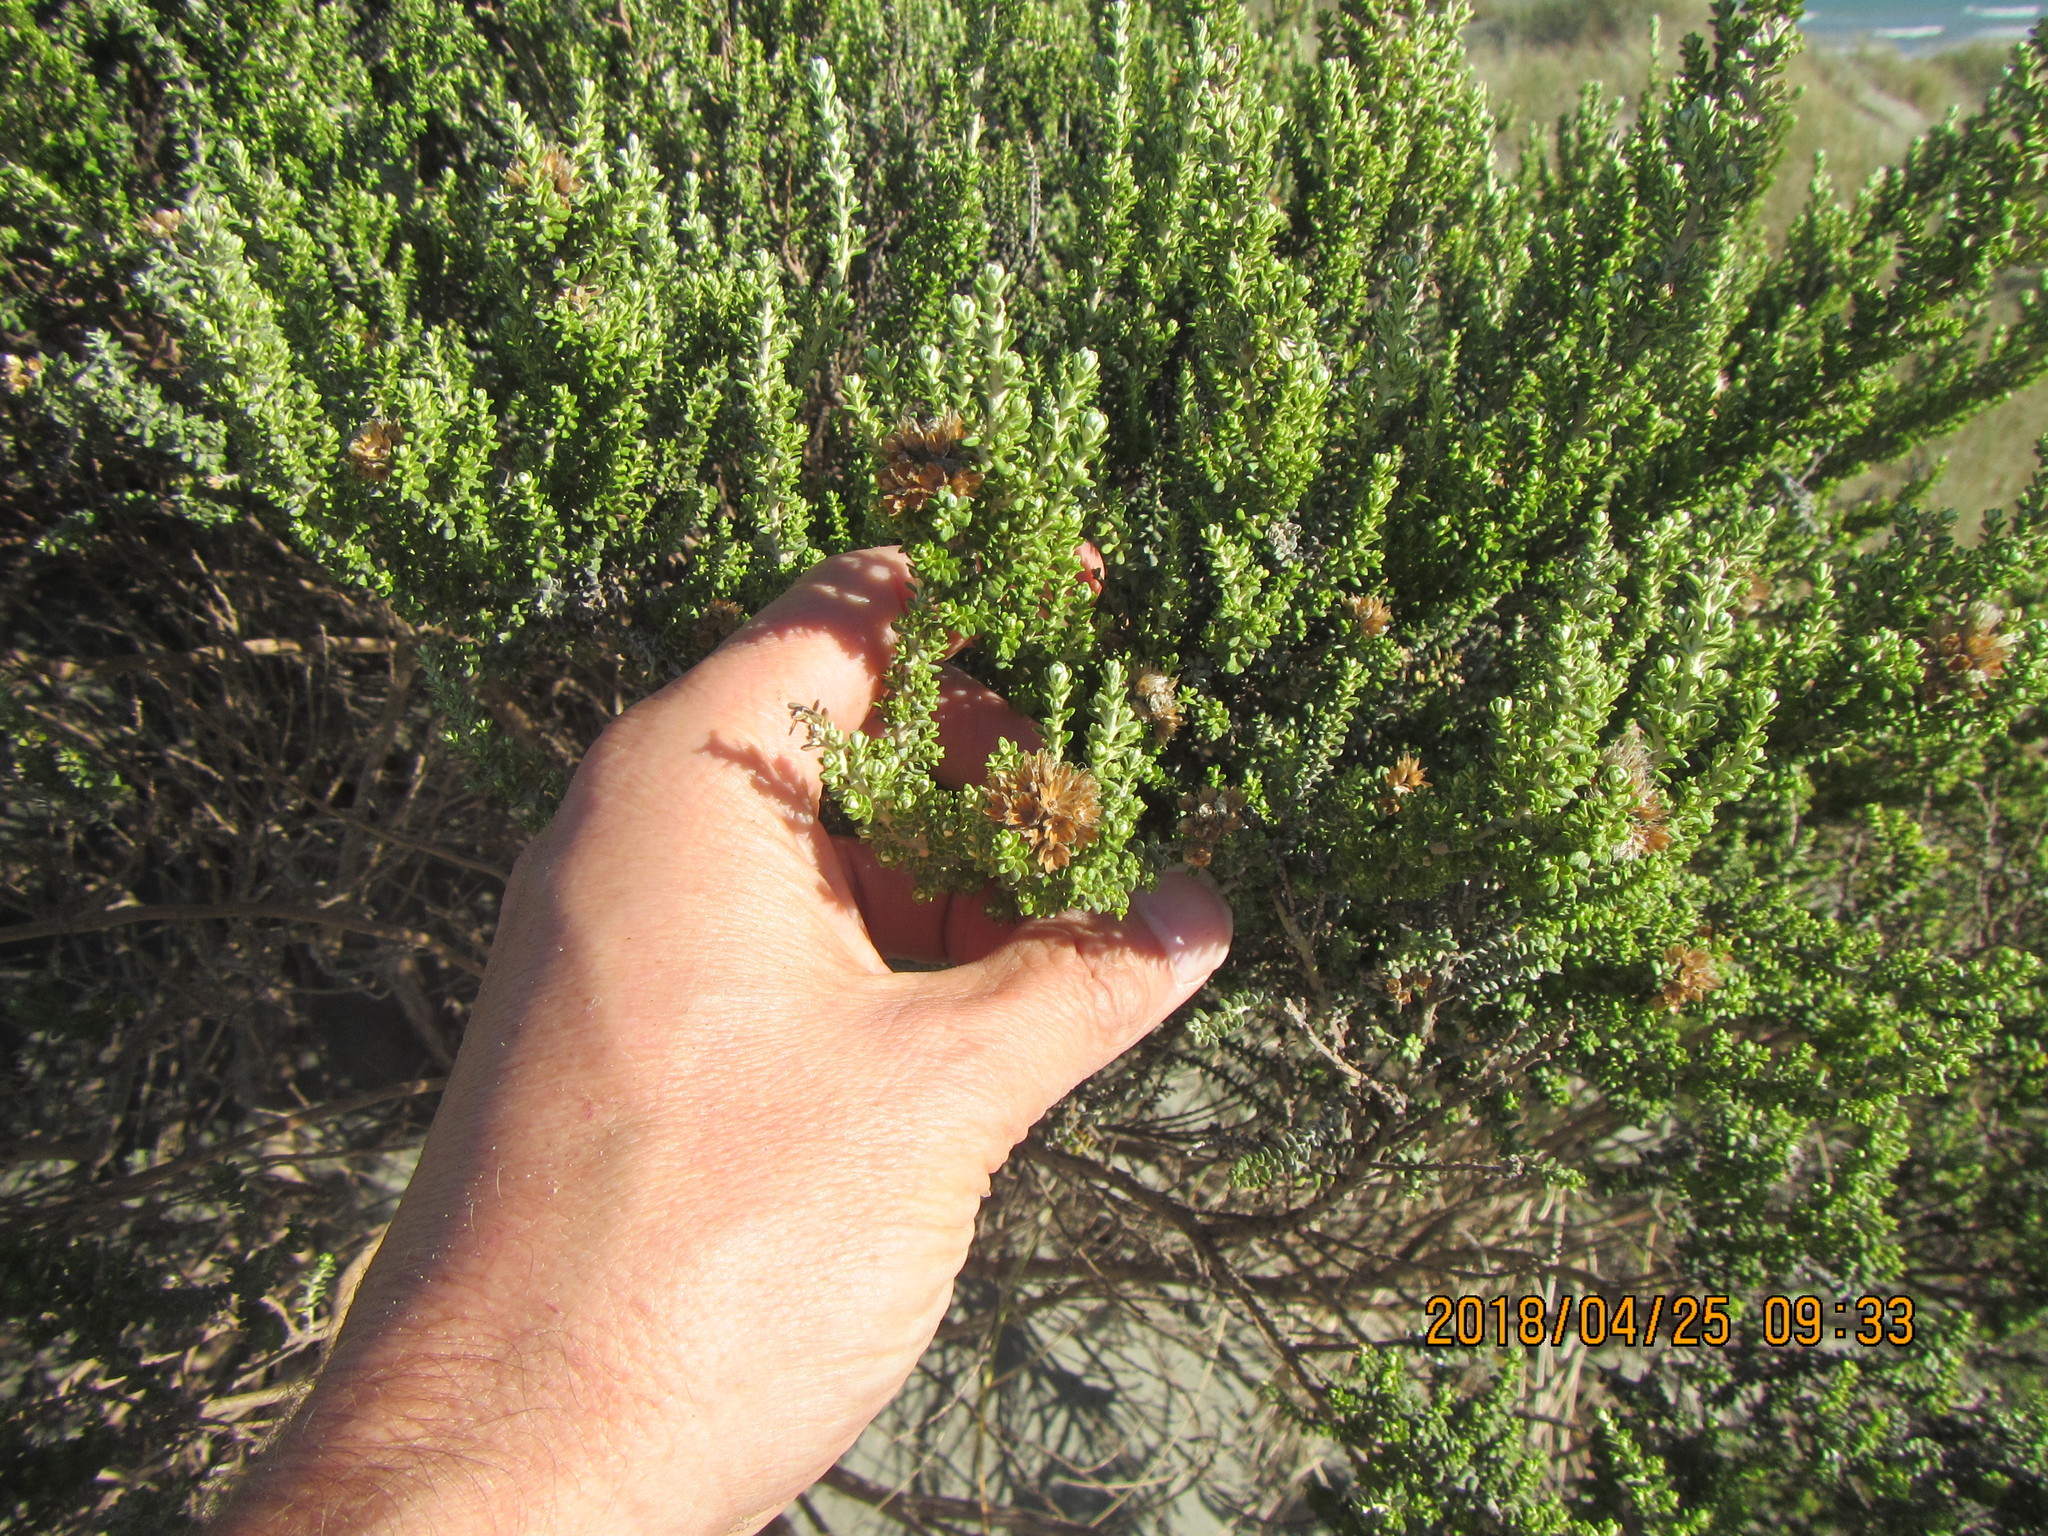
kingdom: Plantae
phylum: Tracheophyta
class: Magnoliopsida
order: Asterales
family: Asteraceae
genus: Ozothamnus
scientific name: Ozothamnus leptophyllus
